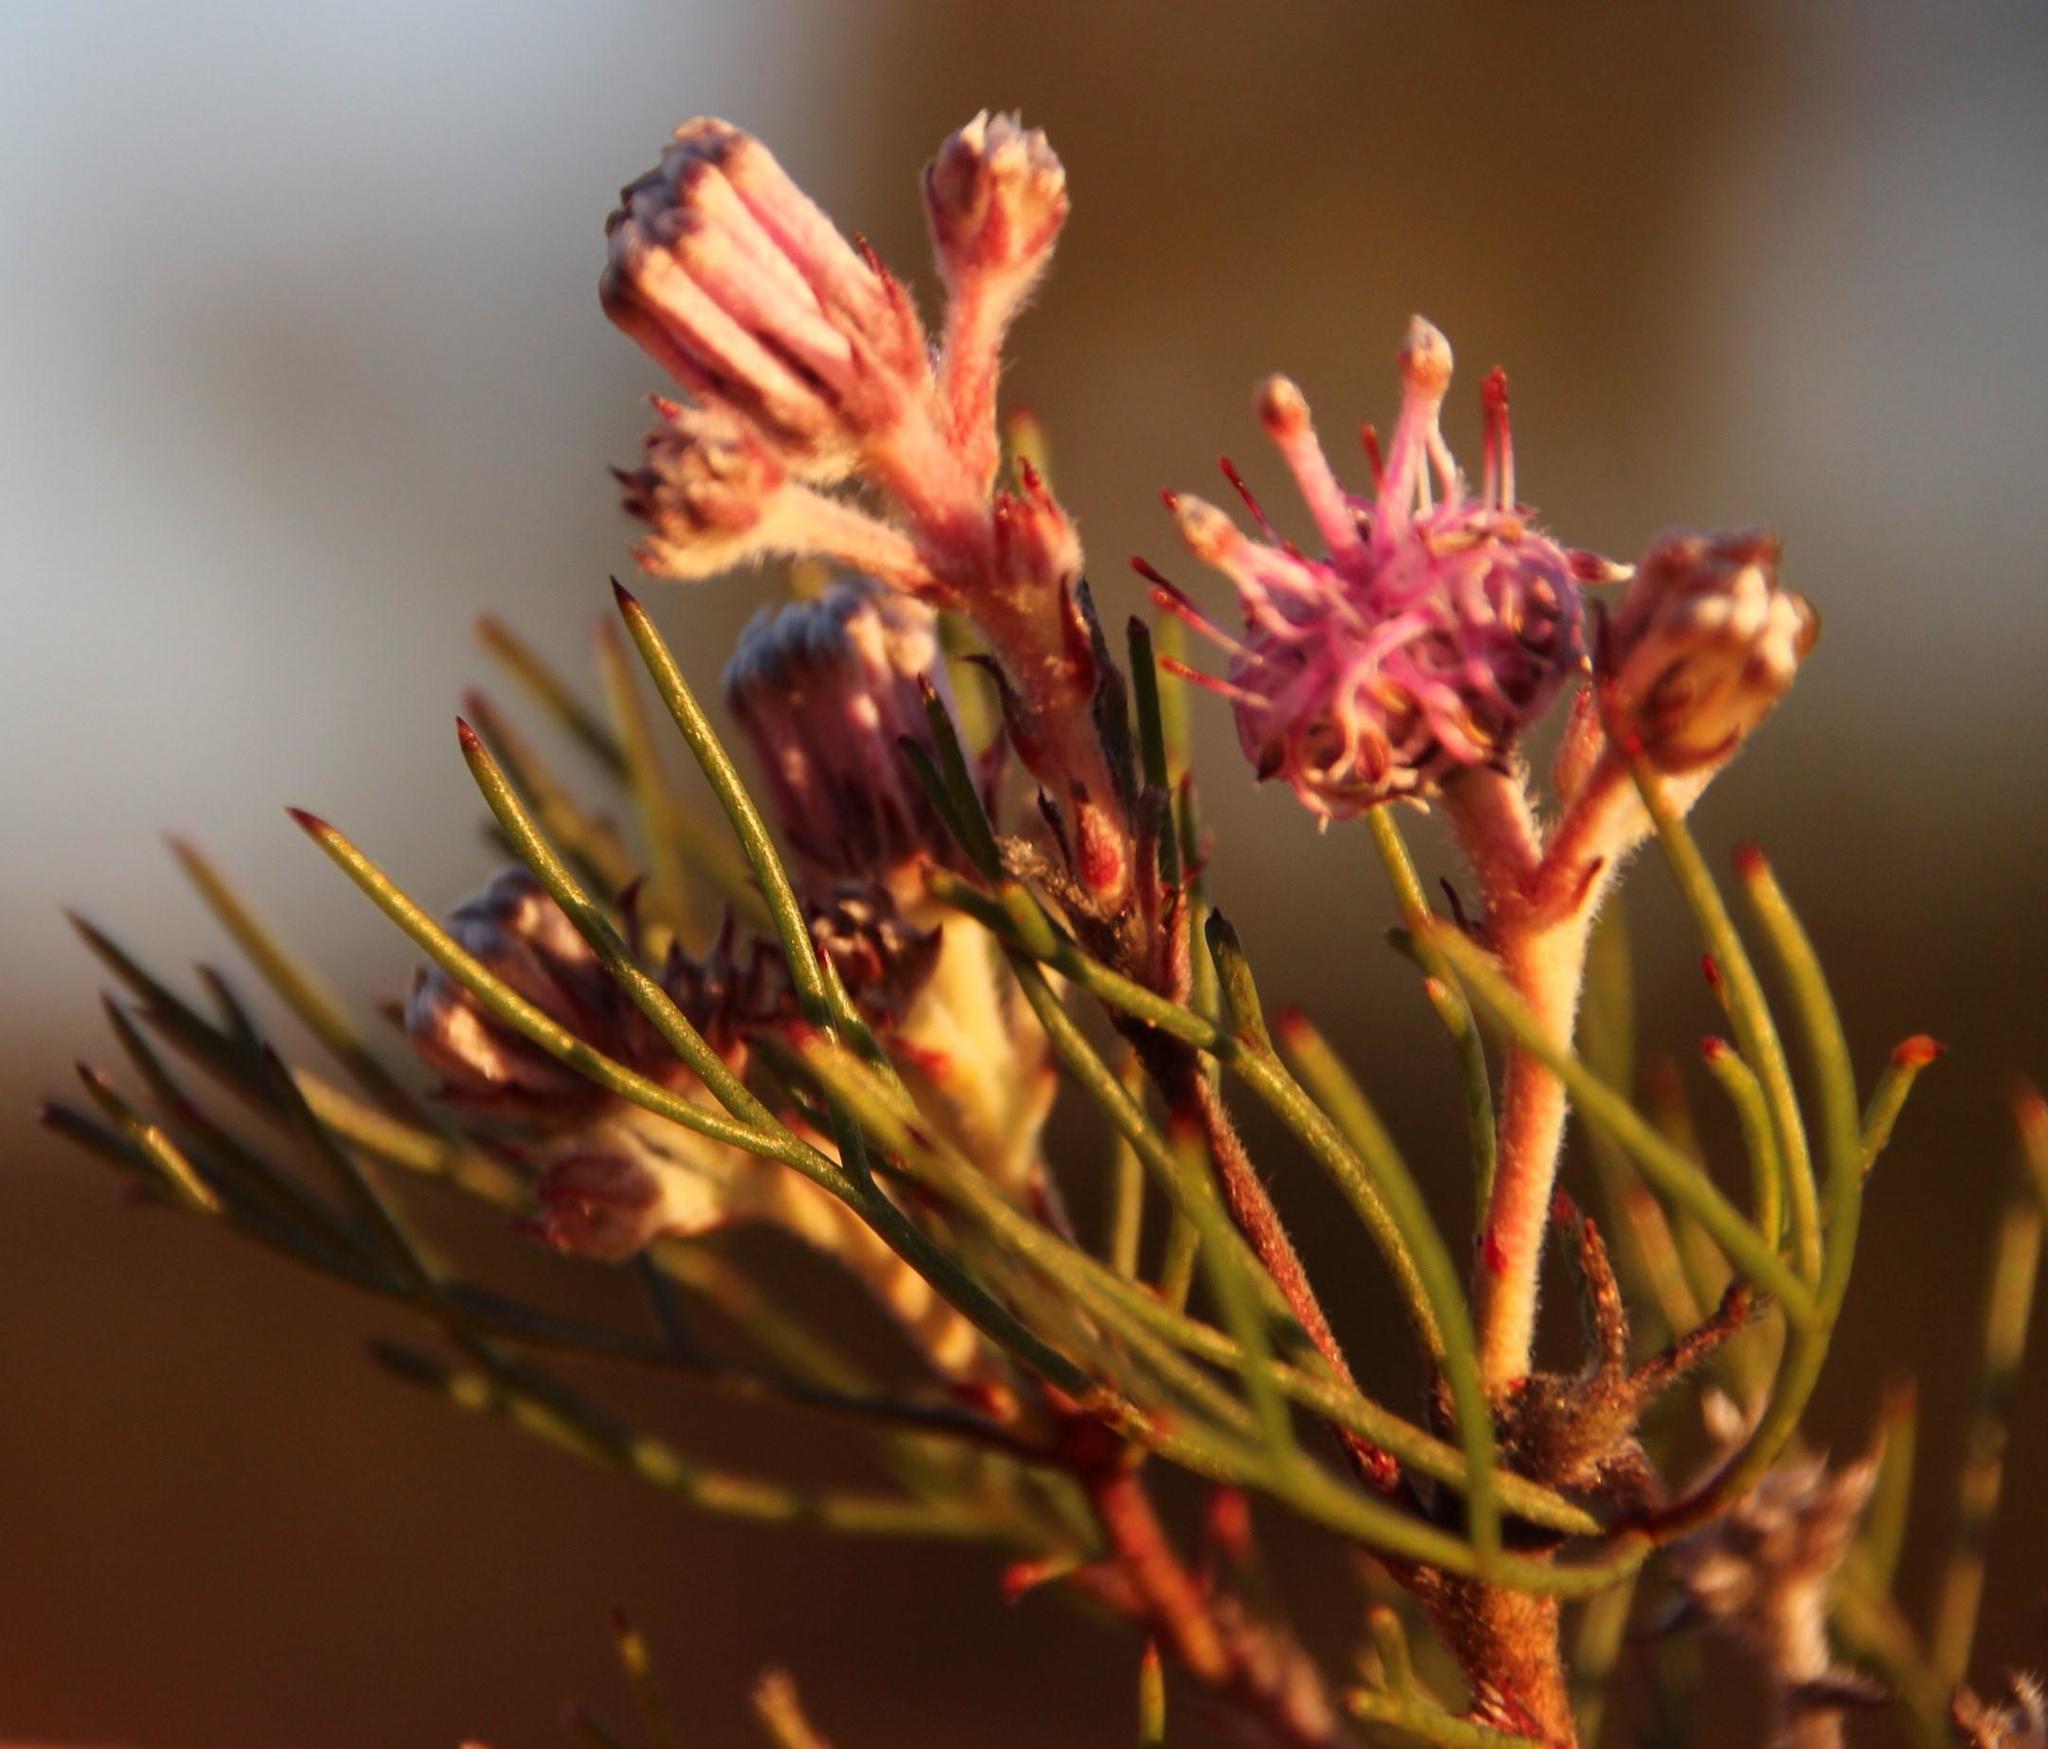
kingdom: Plantae
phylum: Tracheophyta
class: Magnoliopsida
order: Proteales
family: Proteaceae
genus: Serruria
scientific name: Serruria fasciflora
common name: Common pin spiderhead
